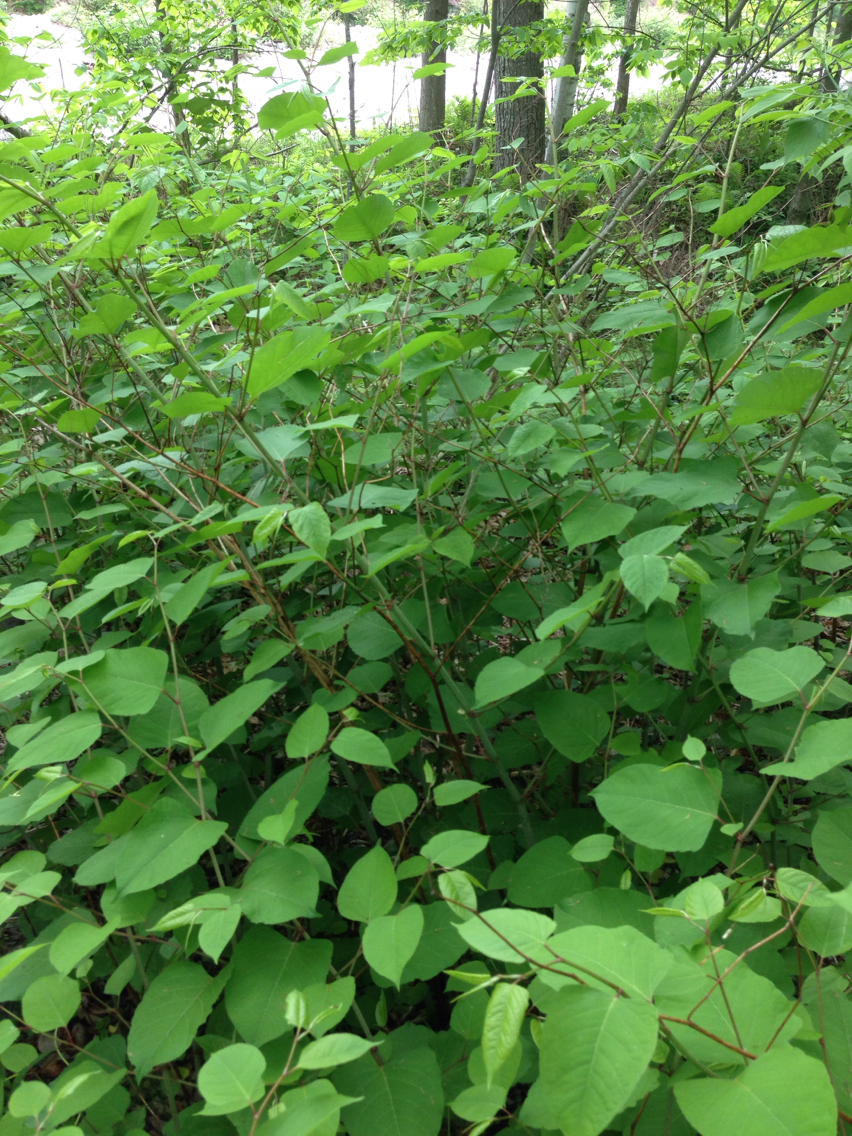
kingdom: Plantae
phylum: Tracheophyta
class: Magnoliopsida
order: Caryophyllales
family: Polygonaceae
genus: Reynoutria
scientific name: Reynoutria japonica
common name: Japanese knotweed
